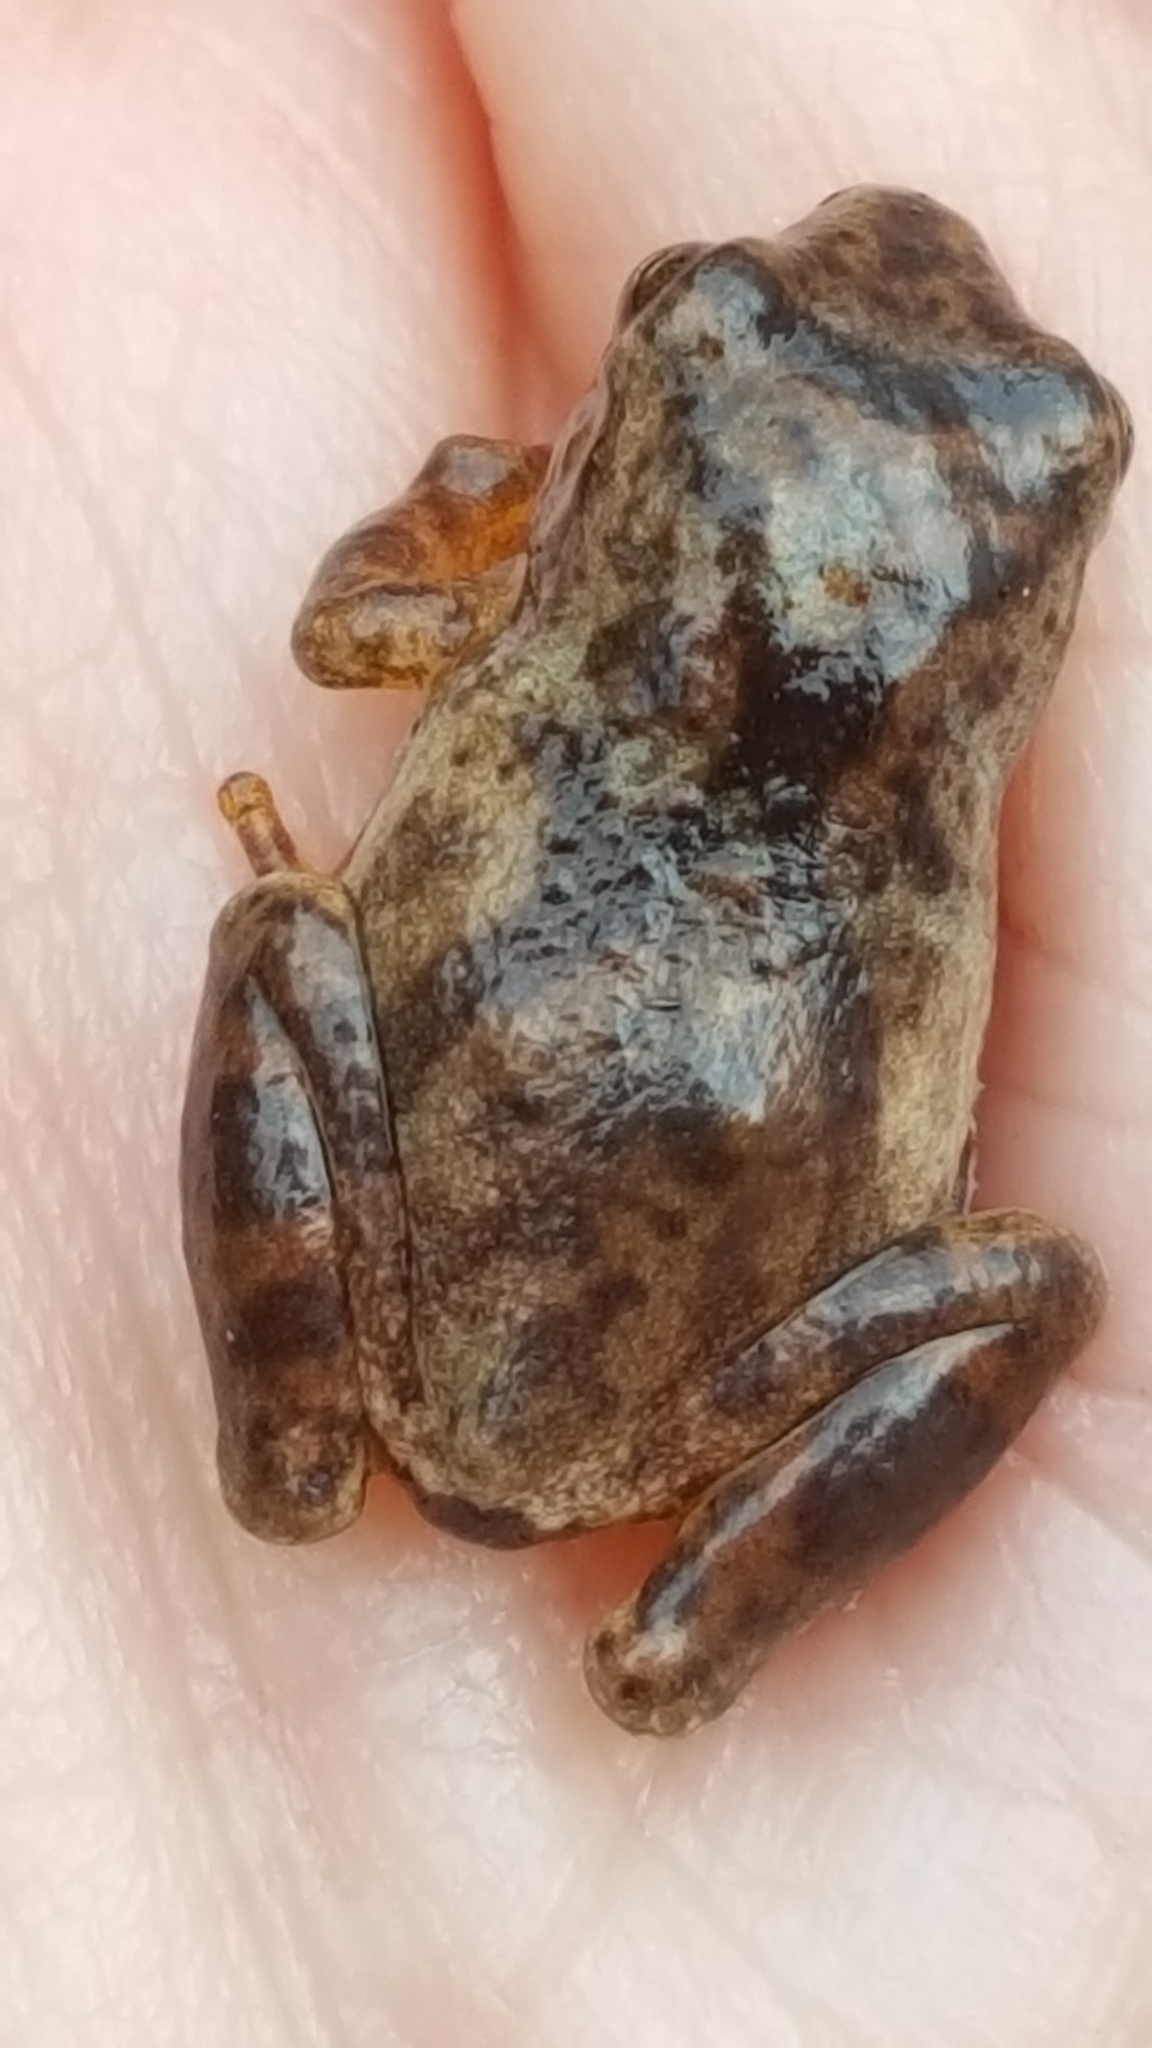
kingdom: Animalia
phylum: Chordata
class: Amphibia
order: Anura
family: Hylidae
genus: Pseudacris
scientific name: Pseudacris crucifer
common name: Spring peeper
